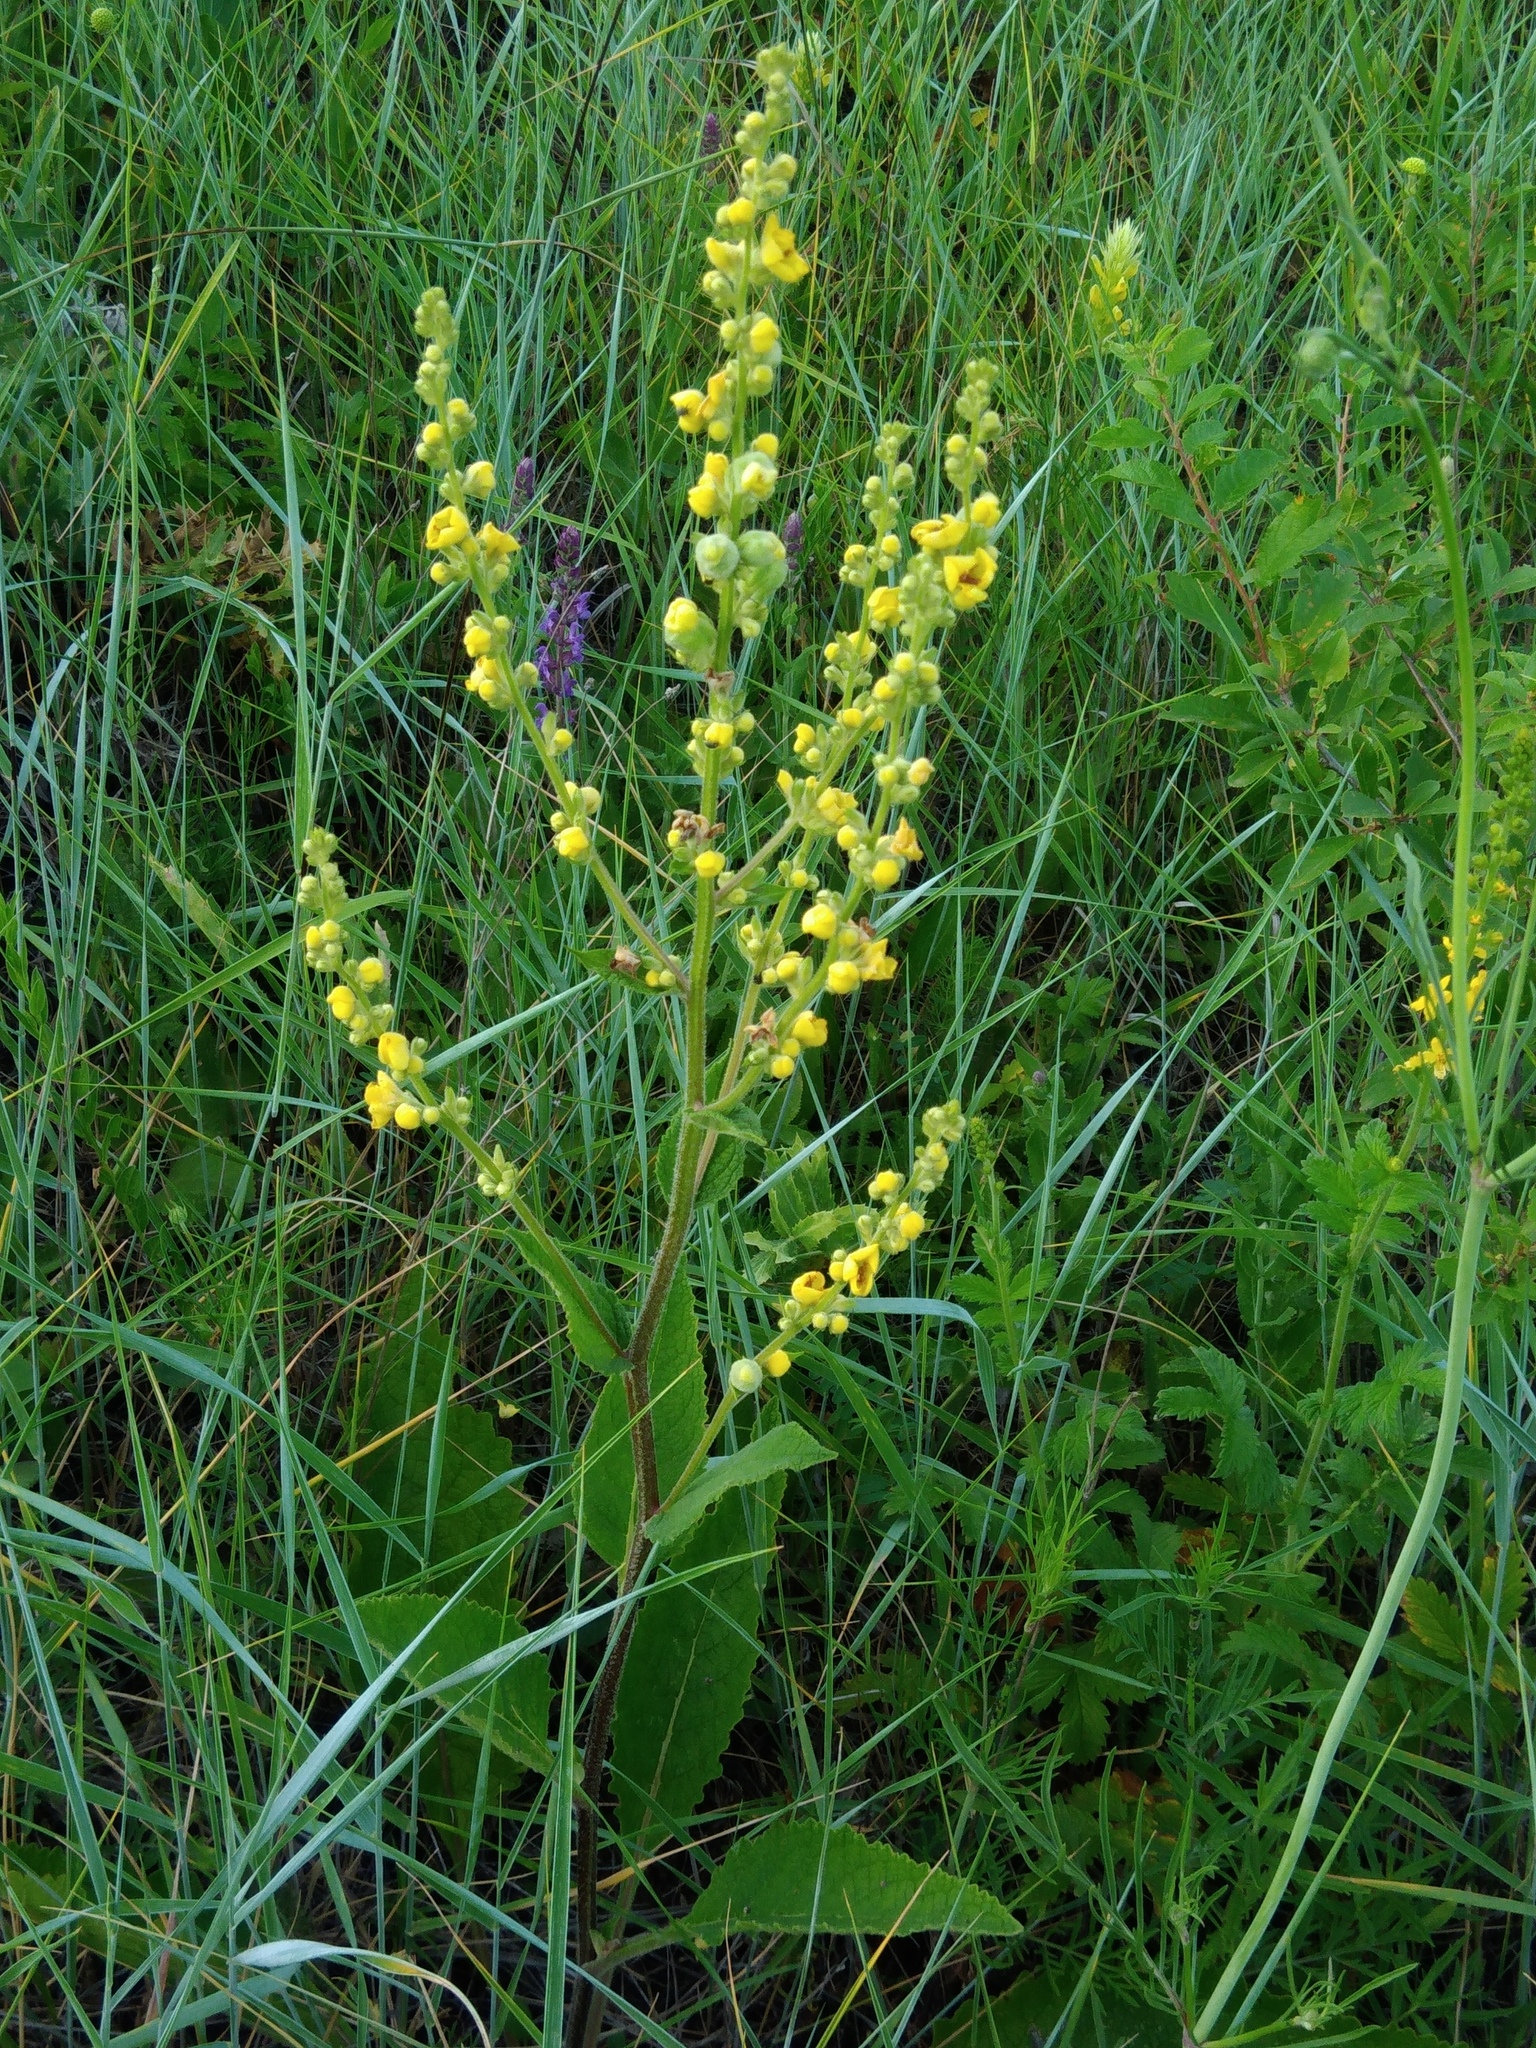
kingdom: Plantae
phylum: Tracheophyta
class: Magnoliopsida
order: Lamiales
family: Scrophulariaceae
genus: Verbascum
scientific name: Verbascum chaixii
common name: Nettle-leaved mullein
